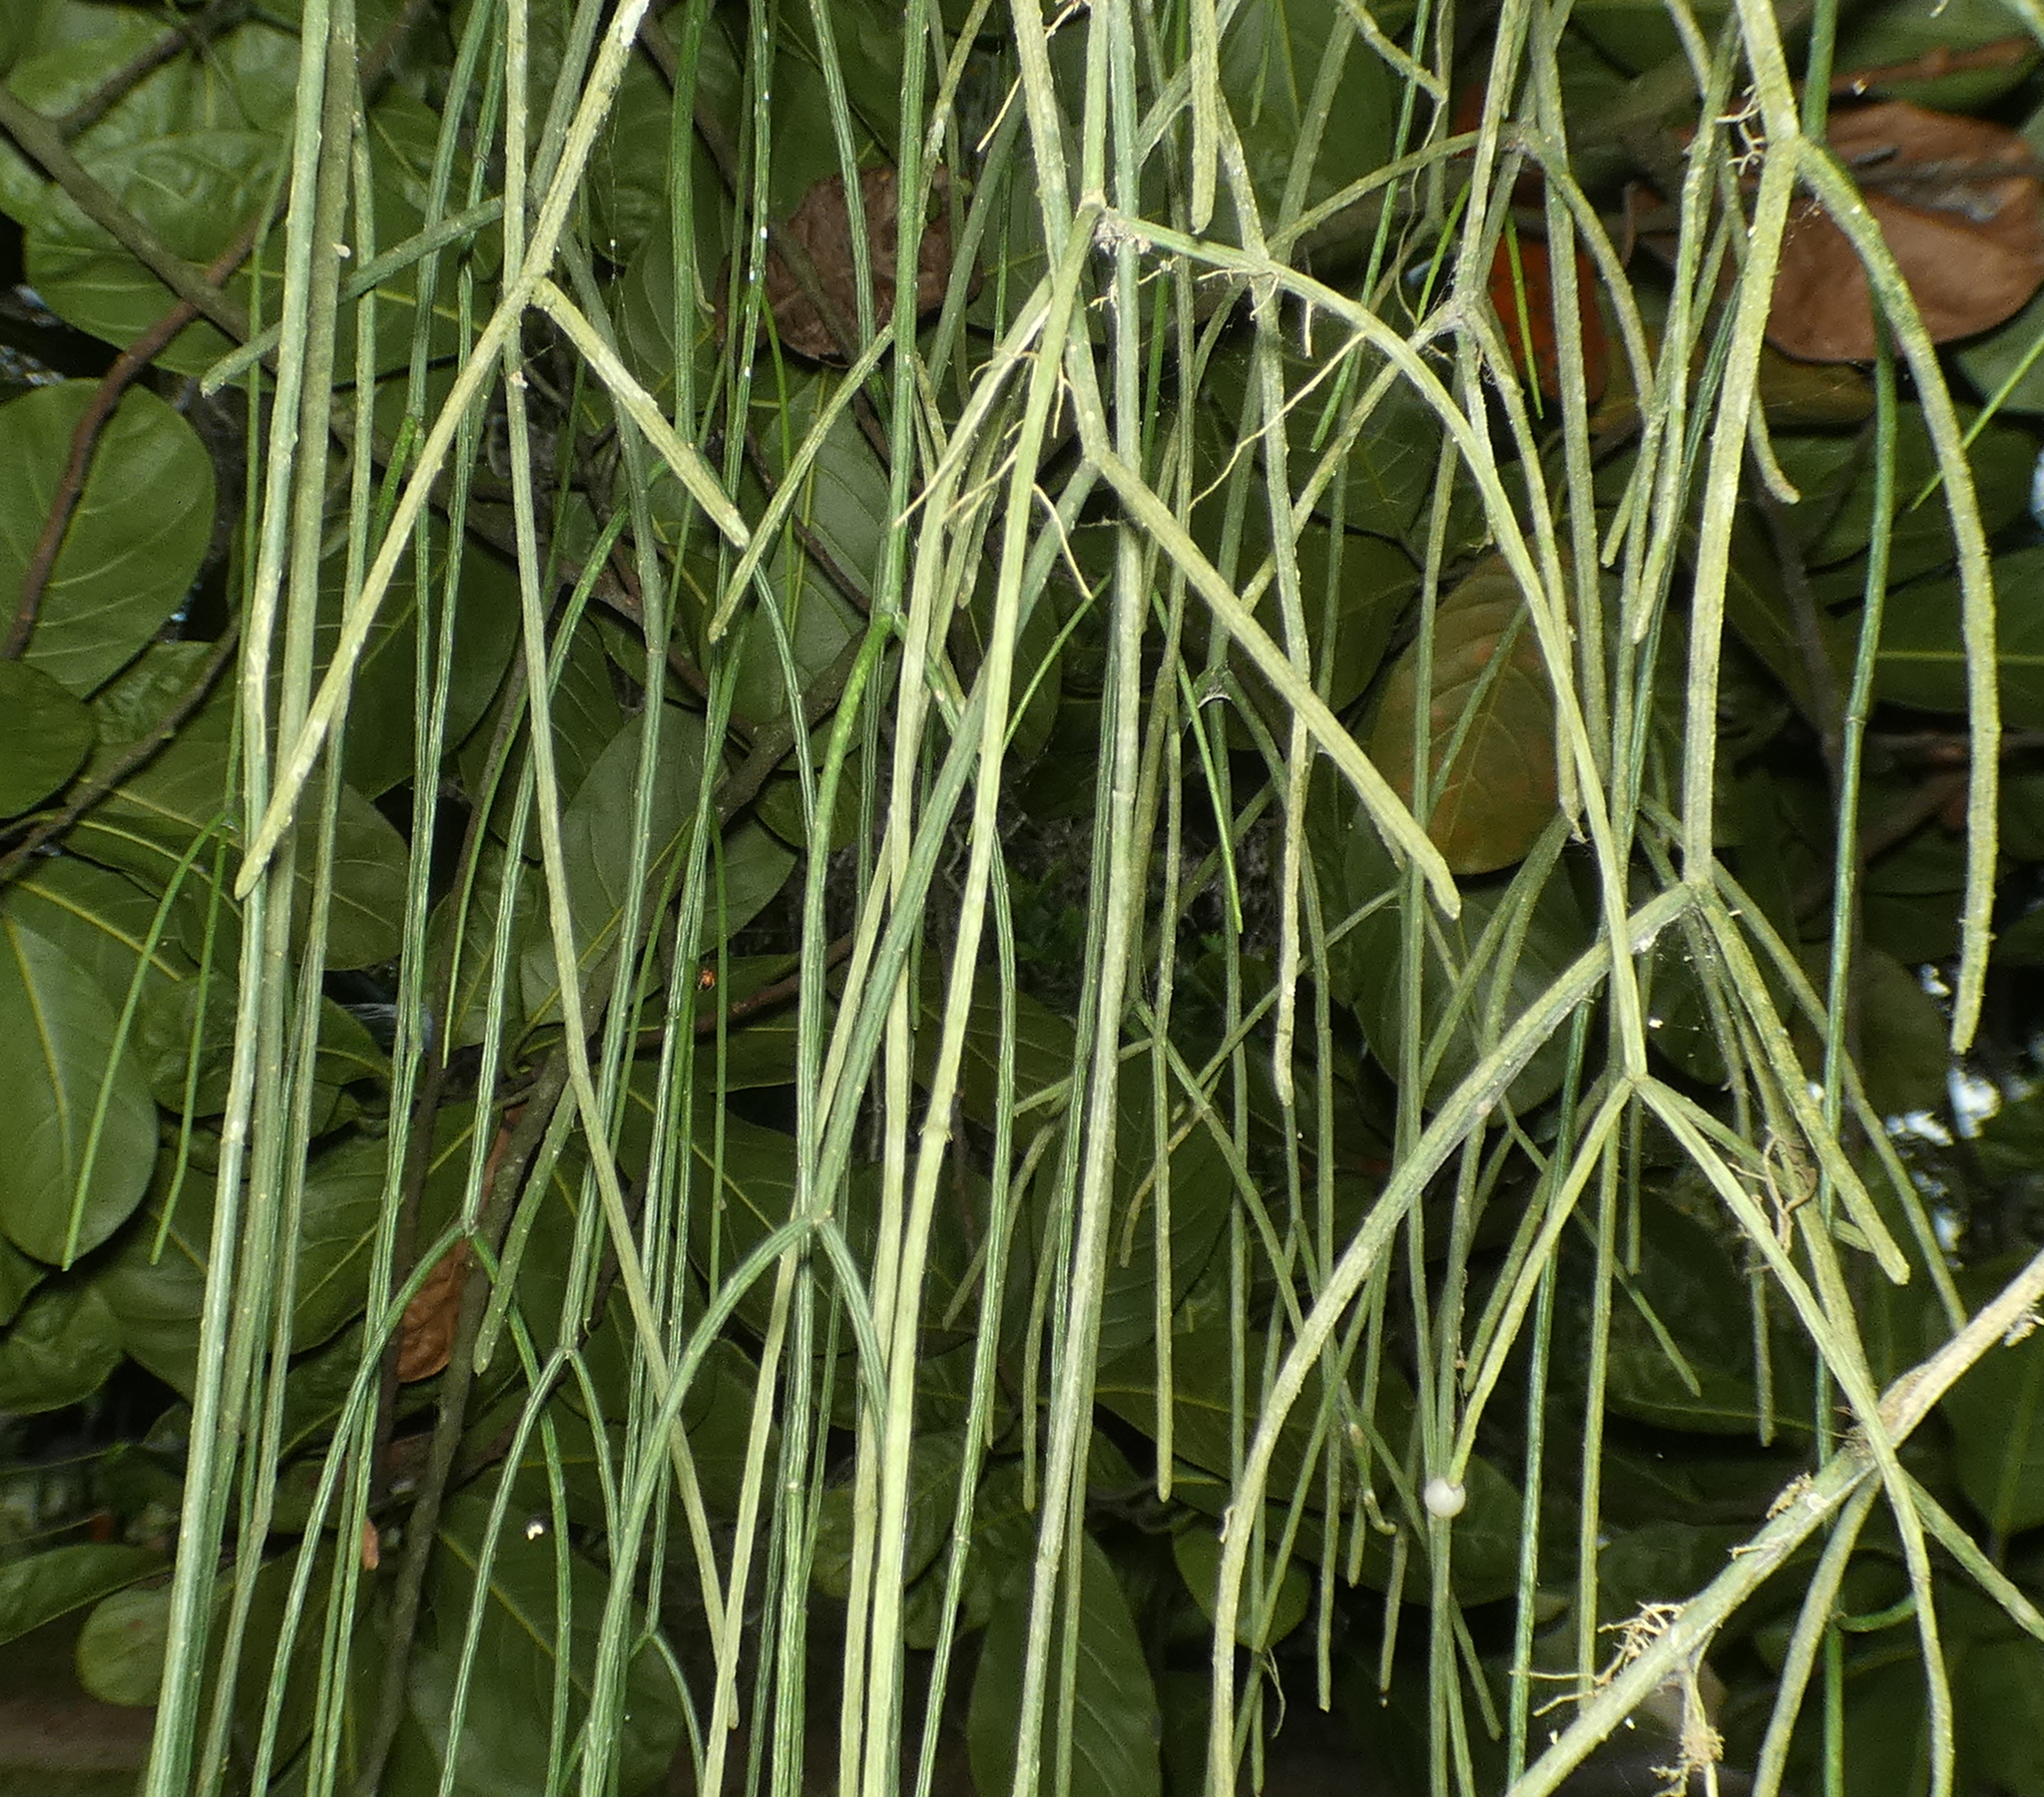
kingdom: Plantae
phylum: Tracheophyta
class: Magnoliopsida
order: Caryophyllales
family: Cactaceae
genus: Rhipsalis
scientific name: Rhipsalis baccifera
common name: Mistletoe cactus
